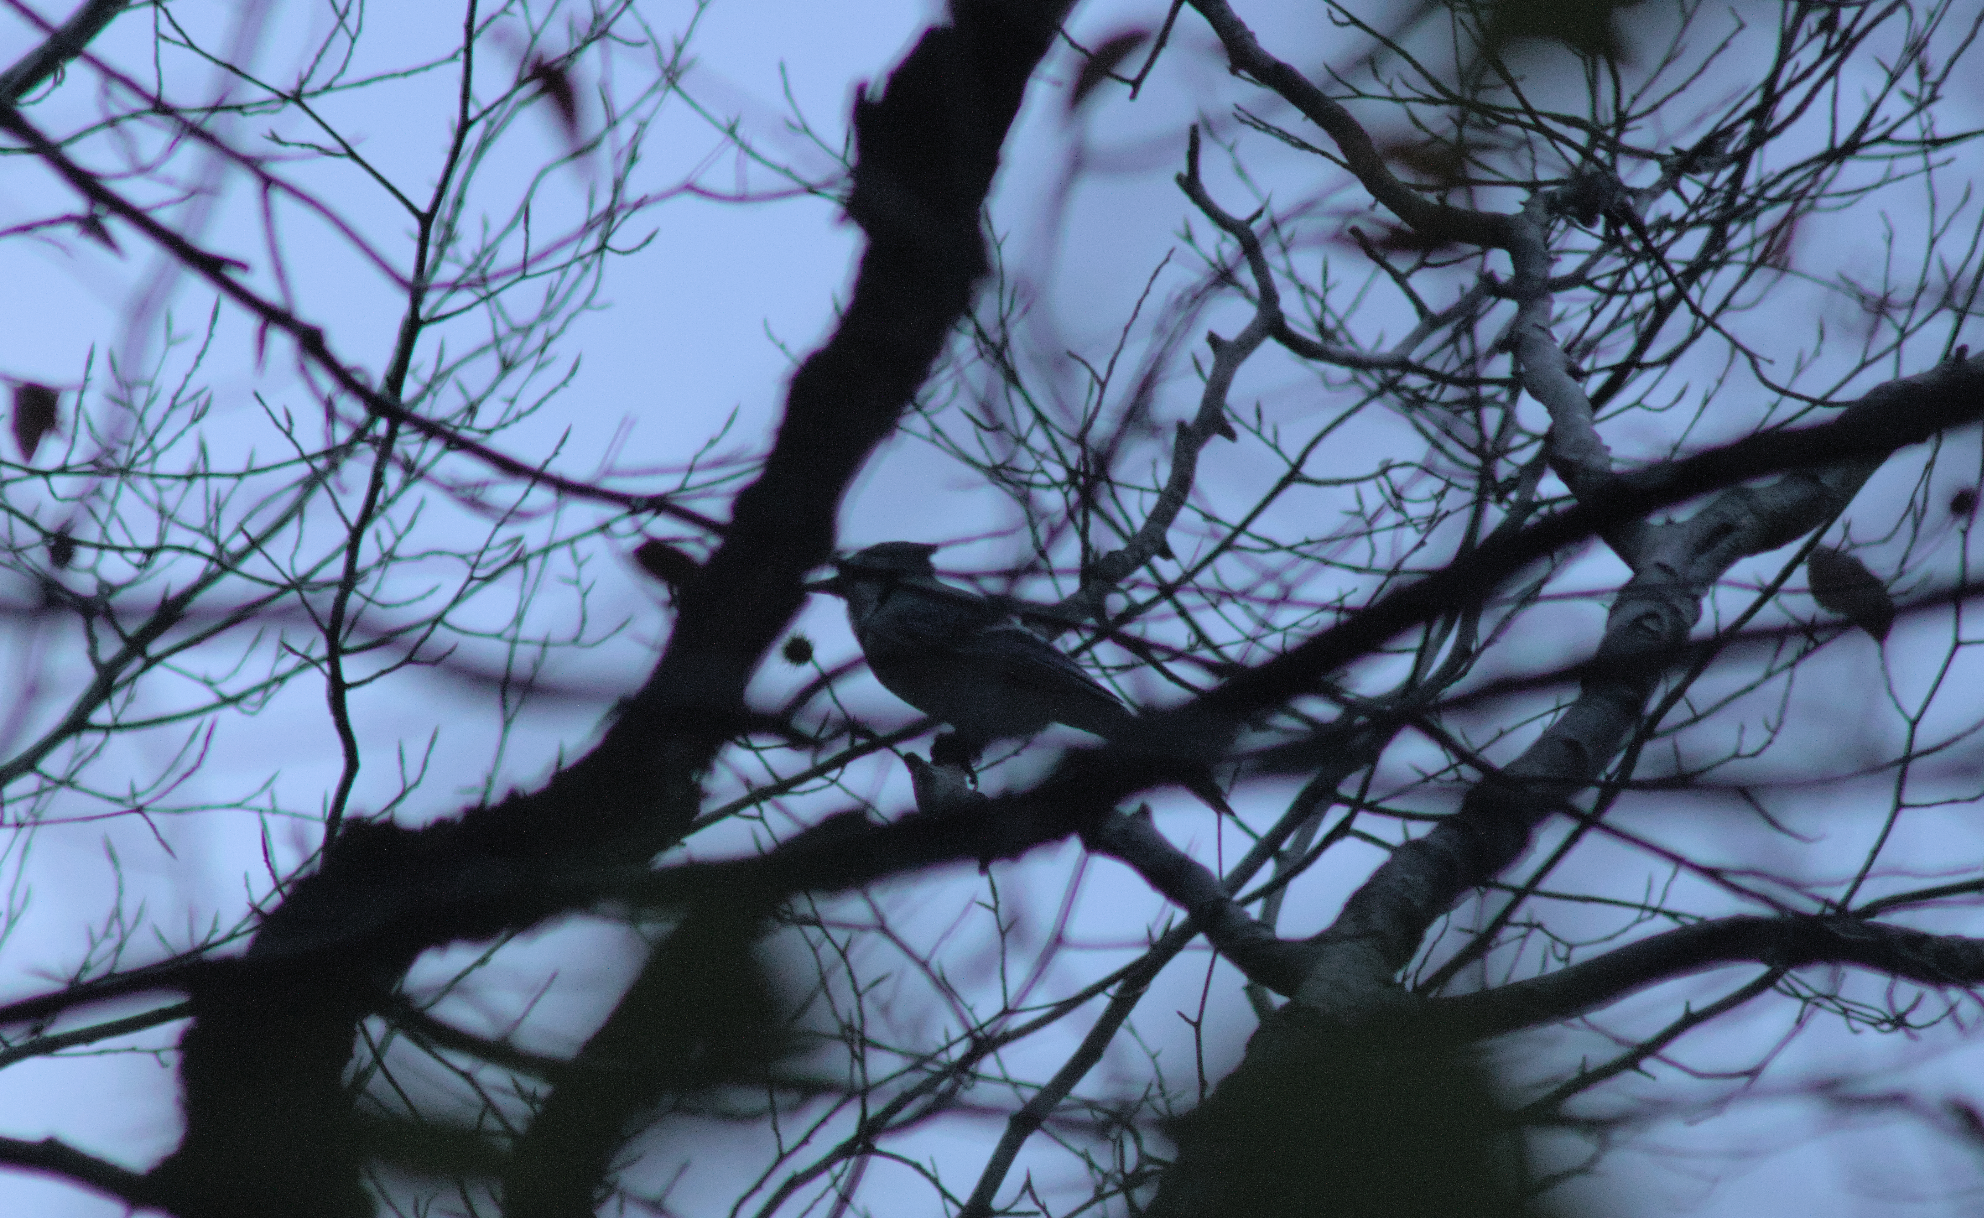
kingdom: Animalia
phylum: Chordata
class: Aves
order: Passeriformes
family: Corvidae
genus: Cyanocitta
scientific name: Cyanocitta cristata
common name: Blue jay
